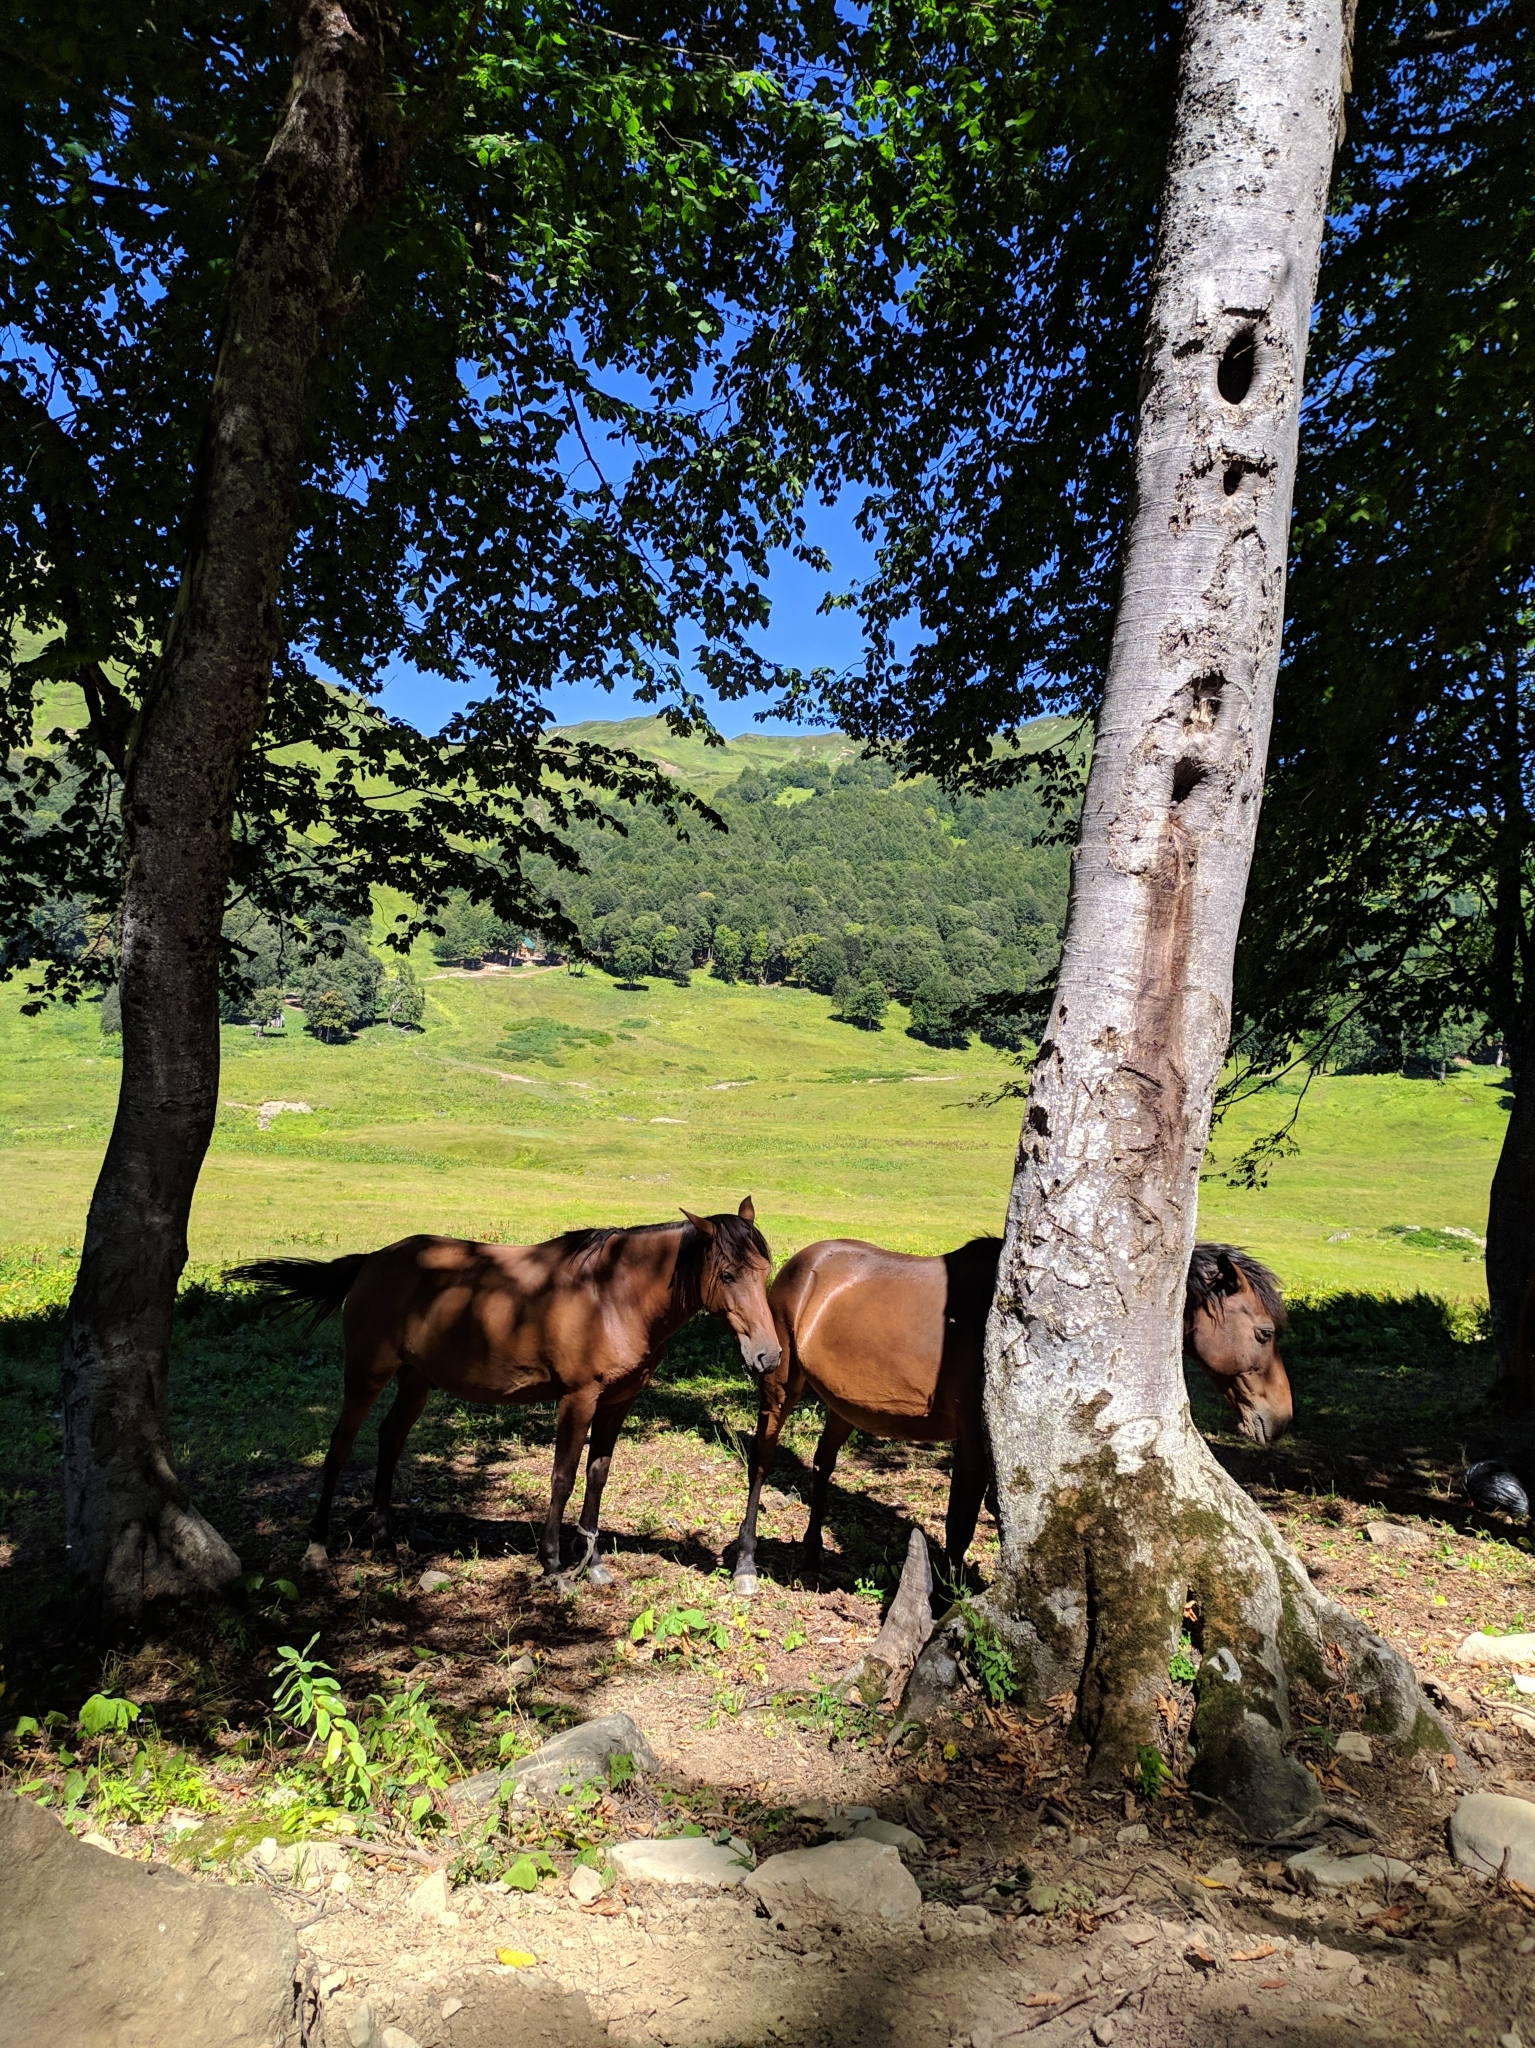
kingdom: Animalia
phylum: Chordata
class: Mammalia
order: Perissodactyla
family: Equidae
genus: Equus
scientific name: Equus caballus
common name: Horse
